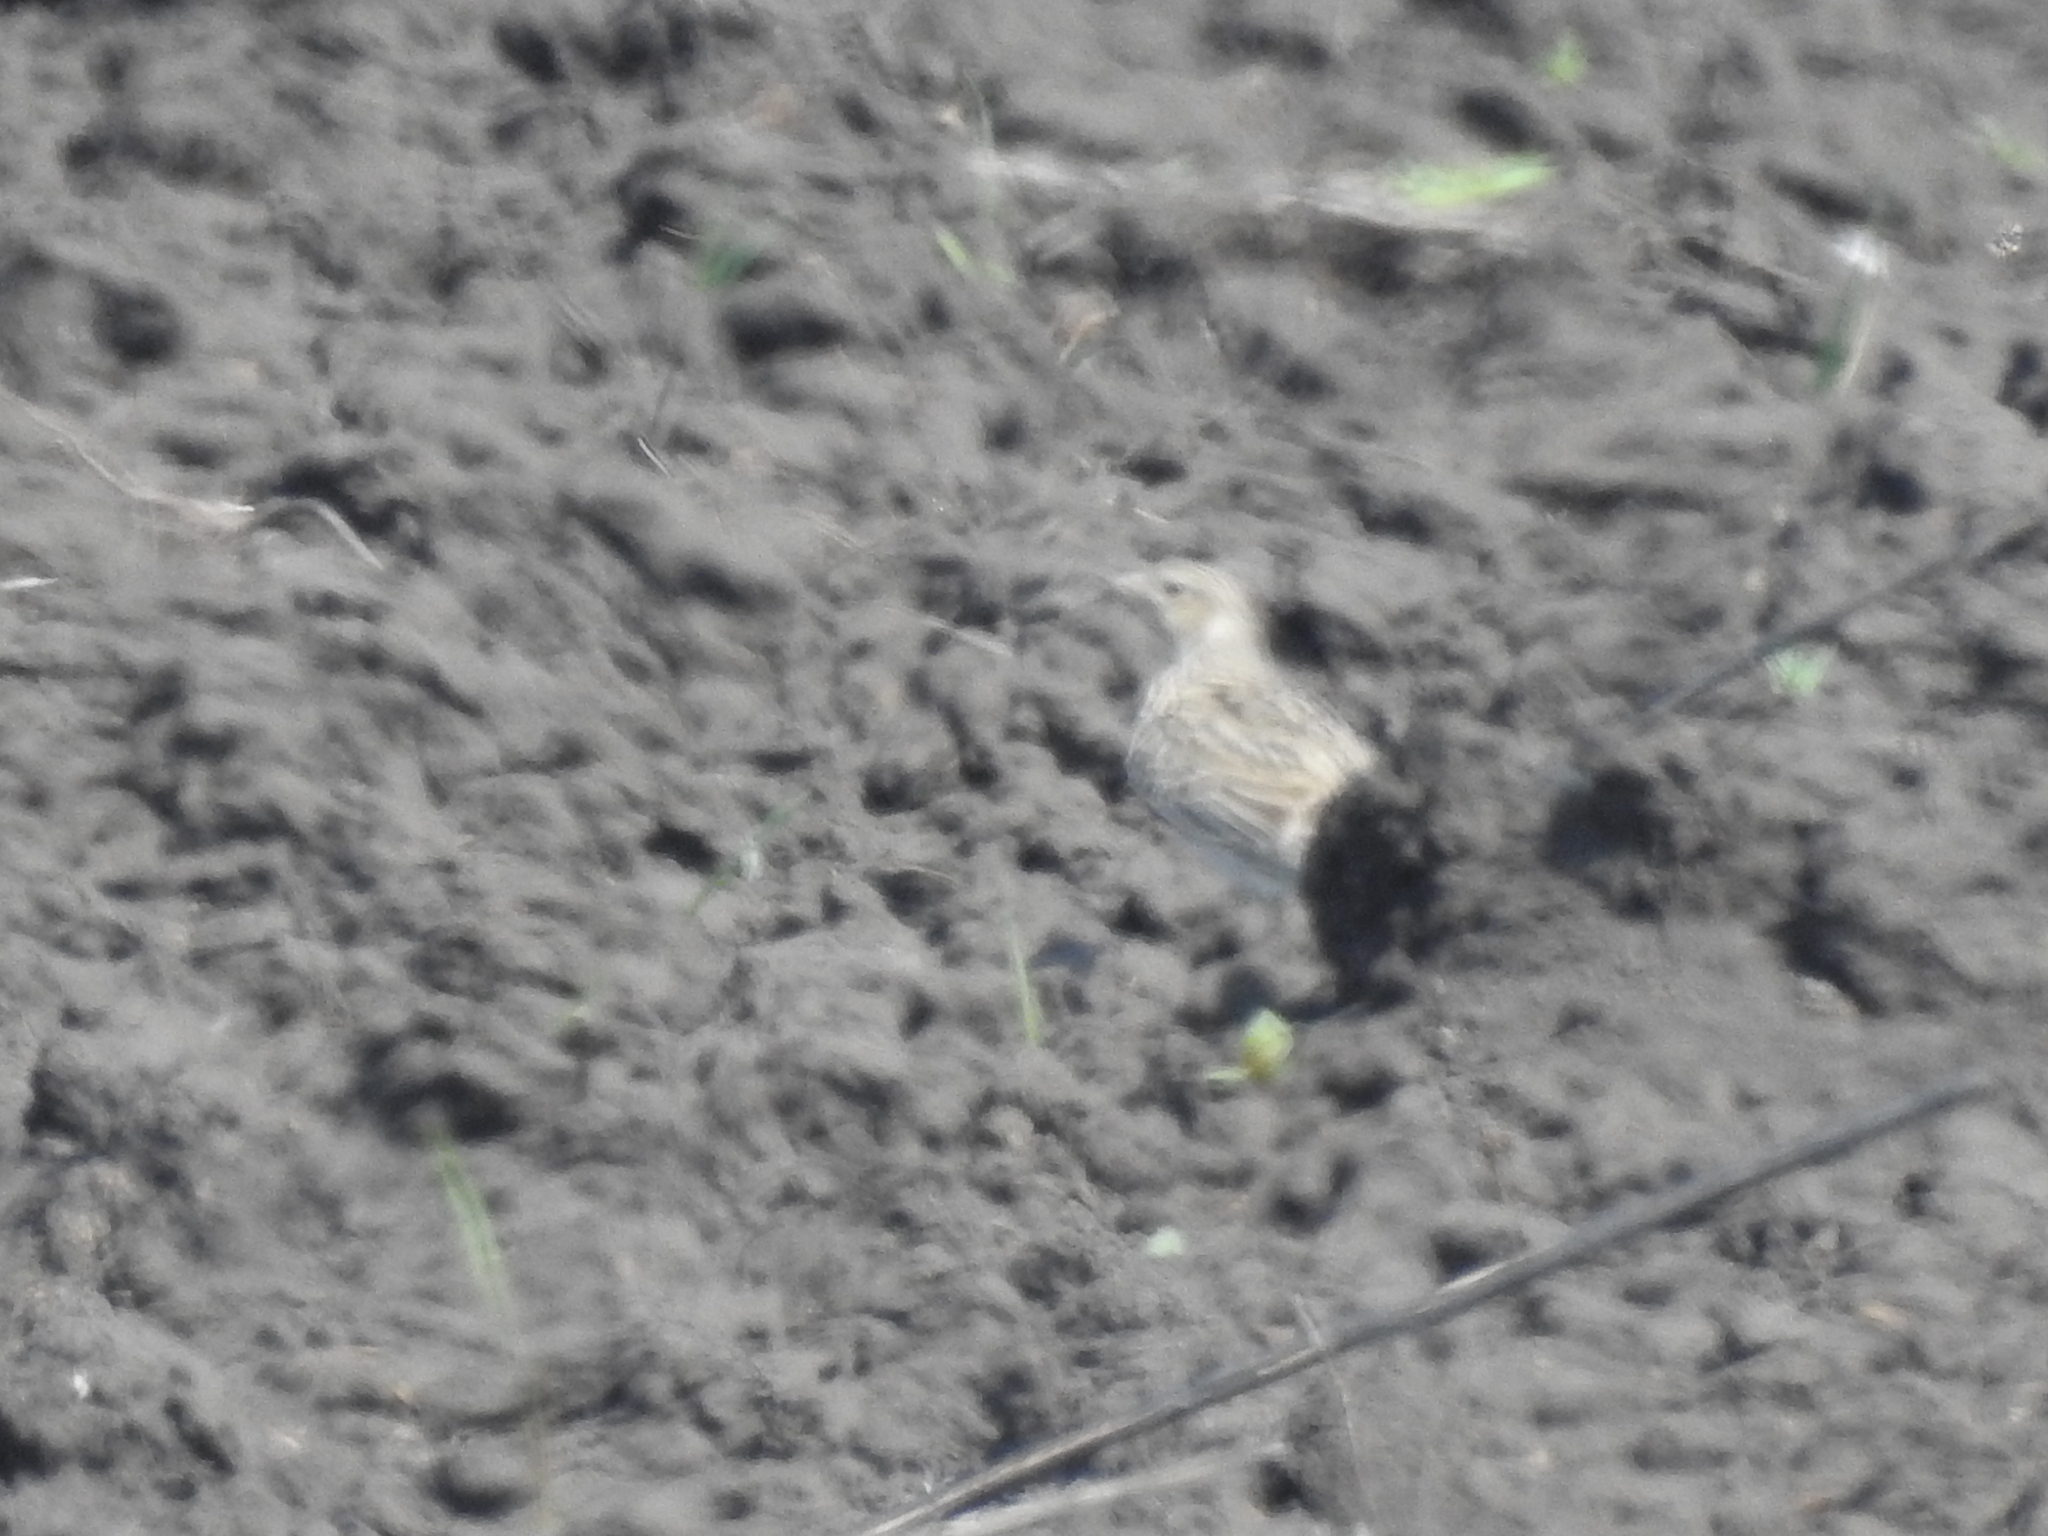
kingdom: Animalia
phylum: Chordata
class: Aves
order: Passeriformes
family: Alaudidae
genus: Alauda
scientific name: Alauda arvensis
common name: Eurasian skylark
